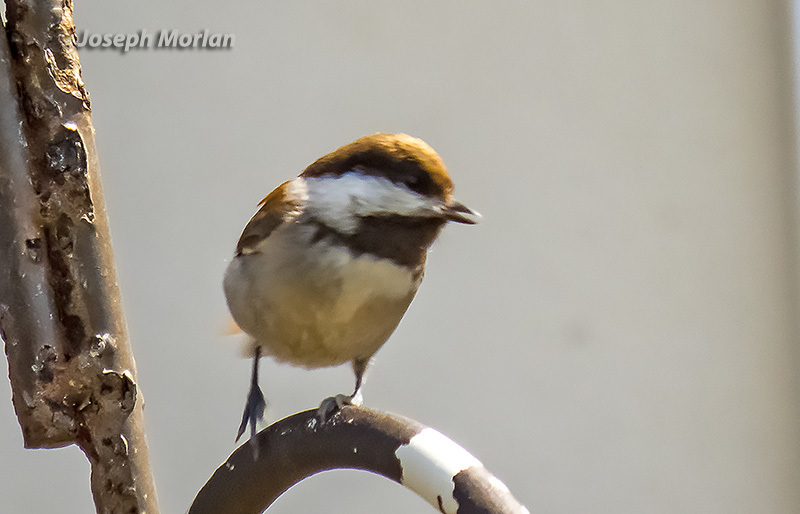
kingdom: Animalia
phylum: Chordata
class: Aves
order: Passeriformes
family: Paridae
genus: Poecile
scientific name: Poecile rufescens
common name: Chestnut-backed chickadee
